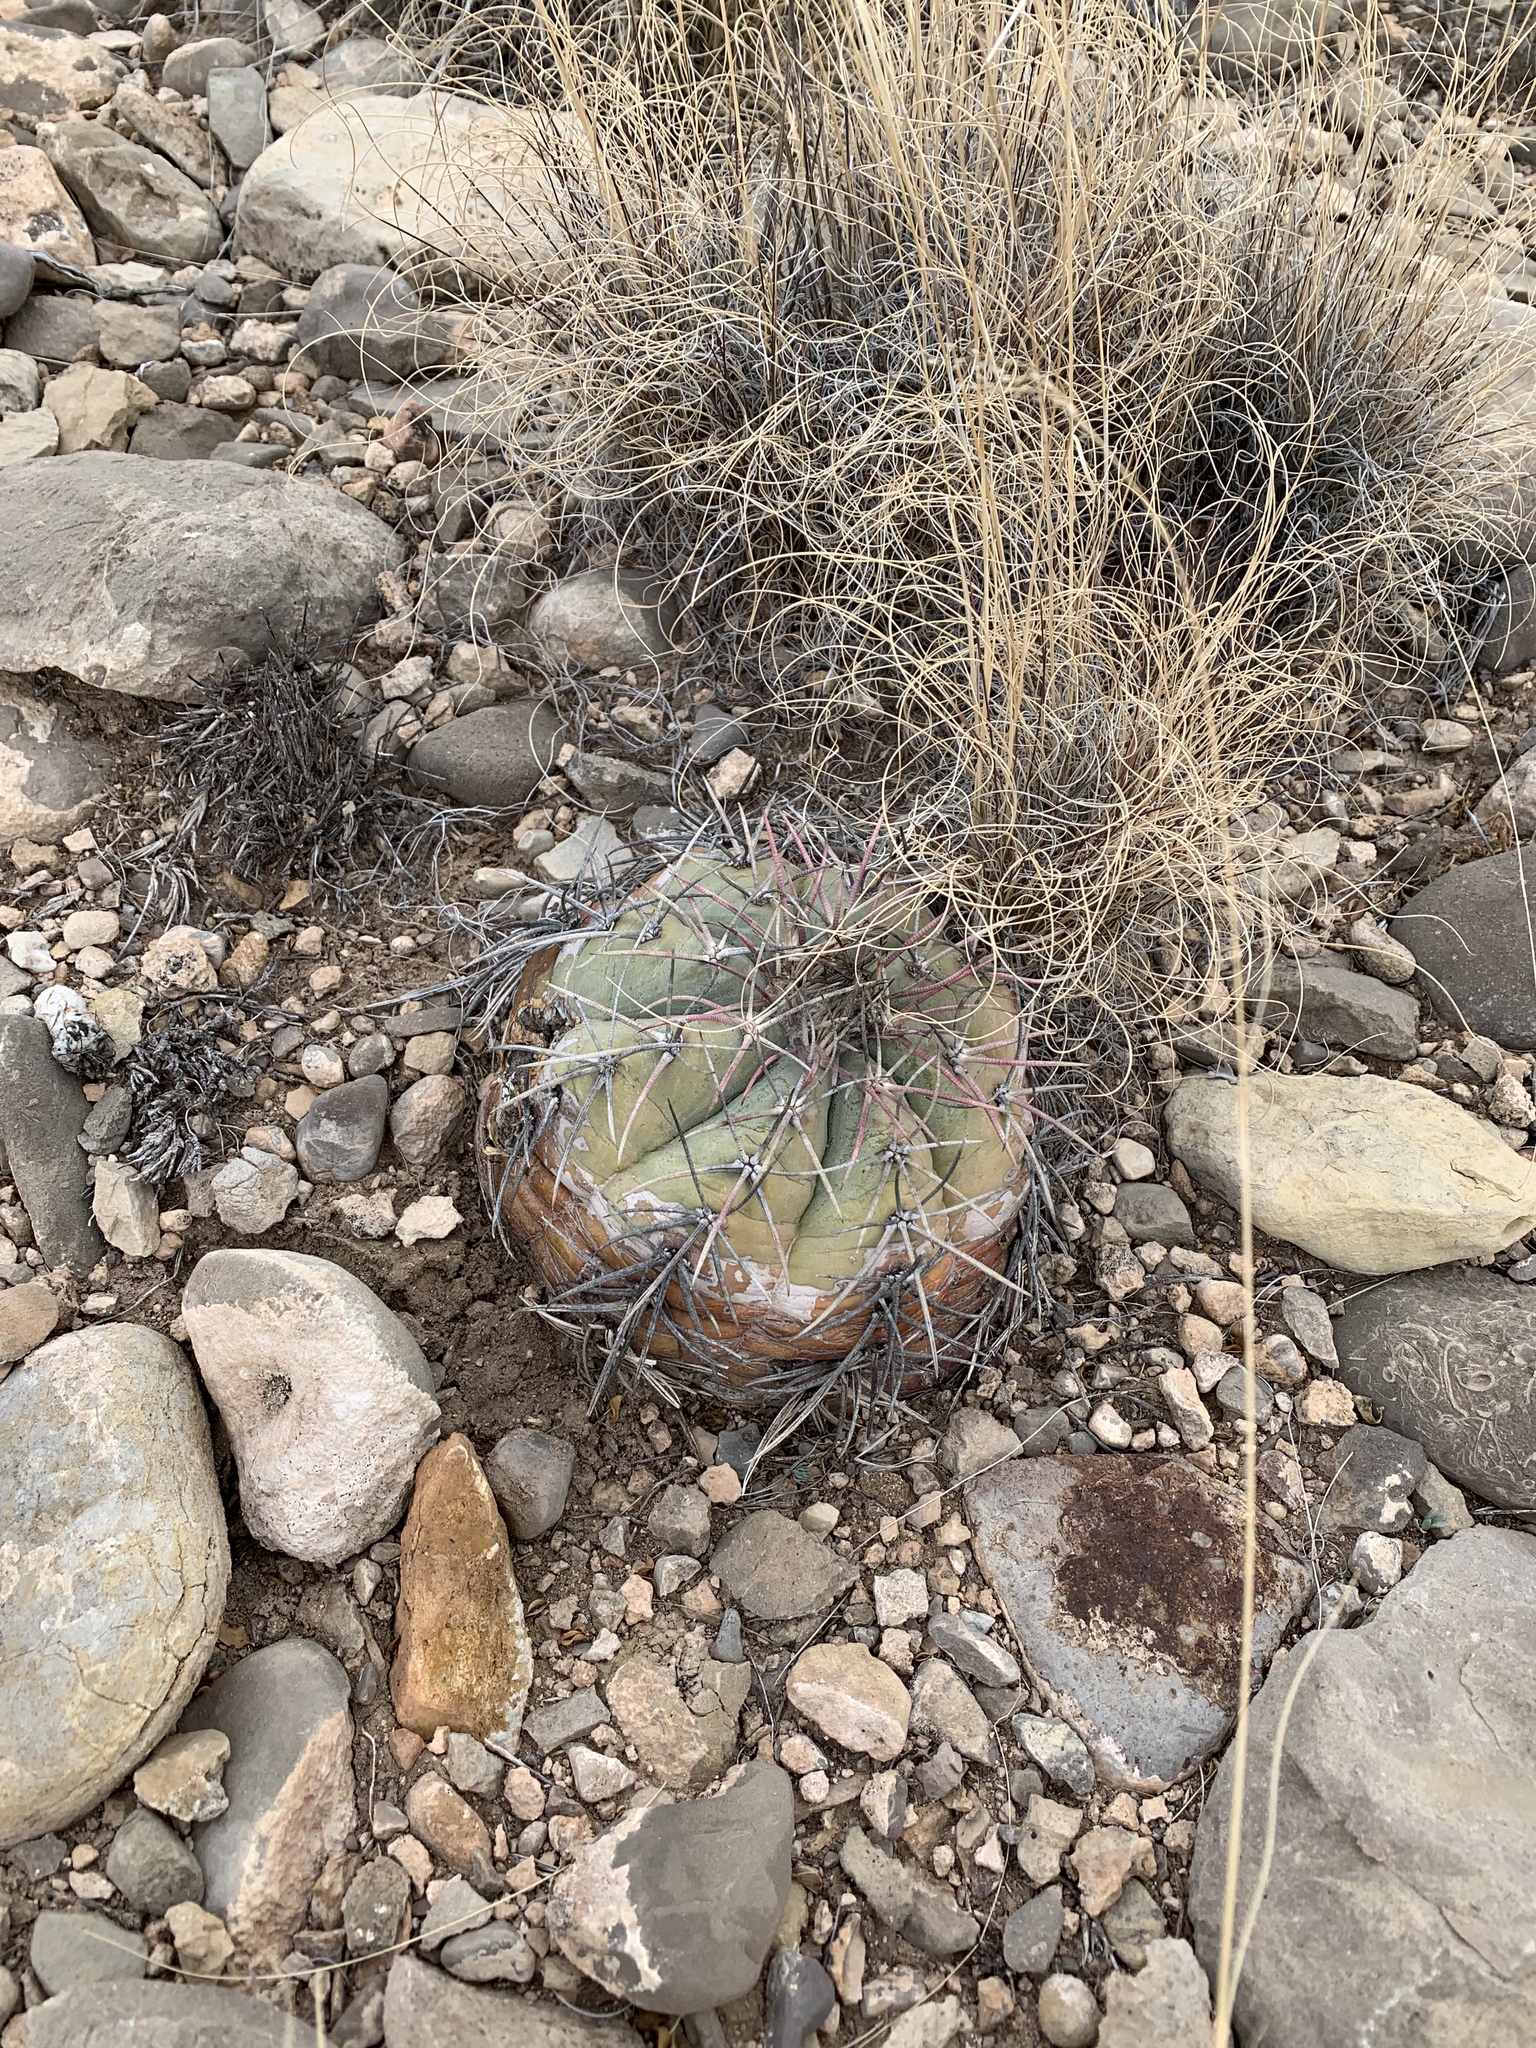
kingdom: Plantae
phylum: Tracheophyta
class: Magnoliopsida
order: Caryophyllales
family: Cactaceae
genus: Echinocactus
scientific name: Echinocactus horizonthalonius
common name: Devilshead
